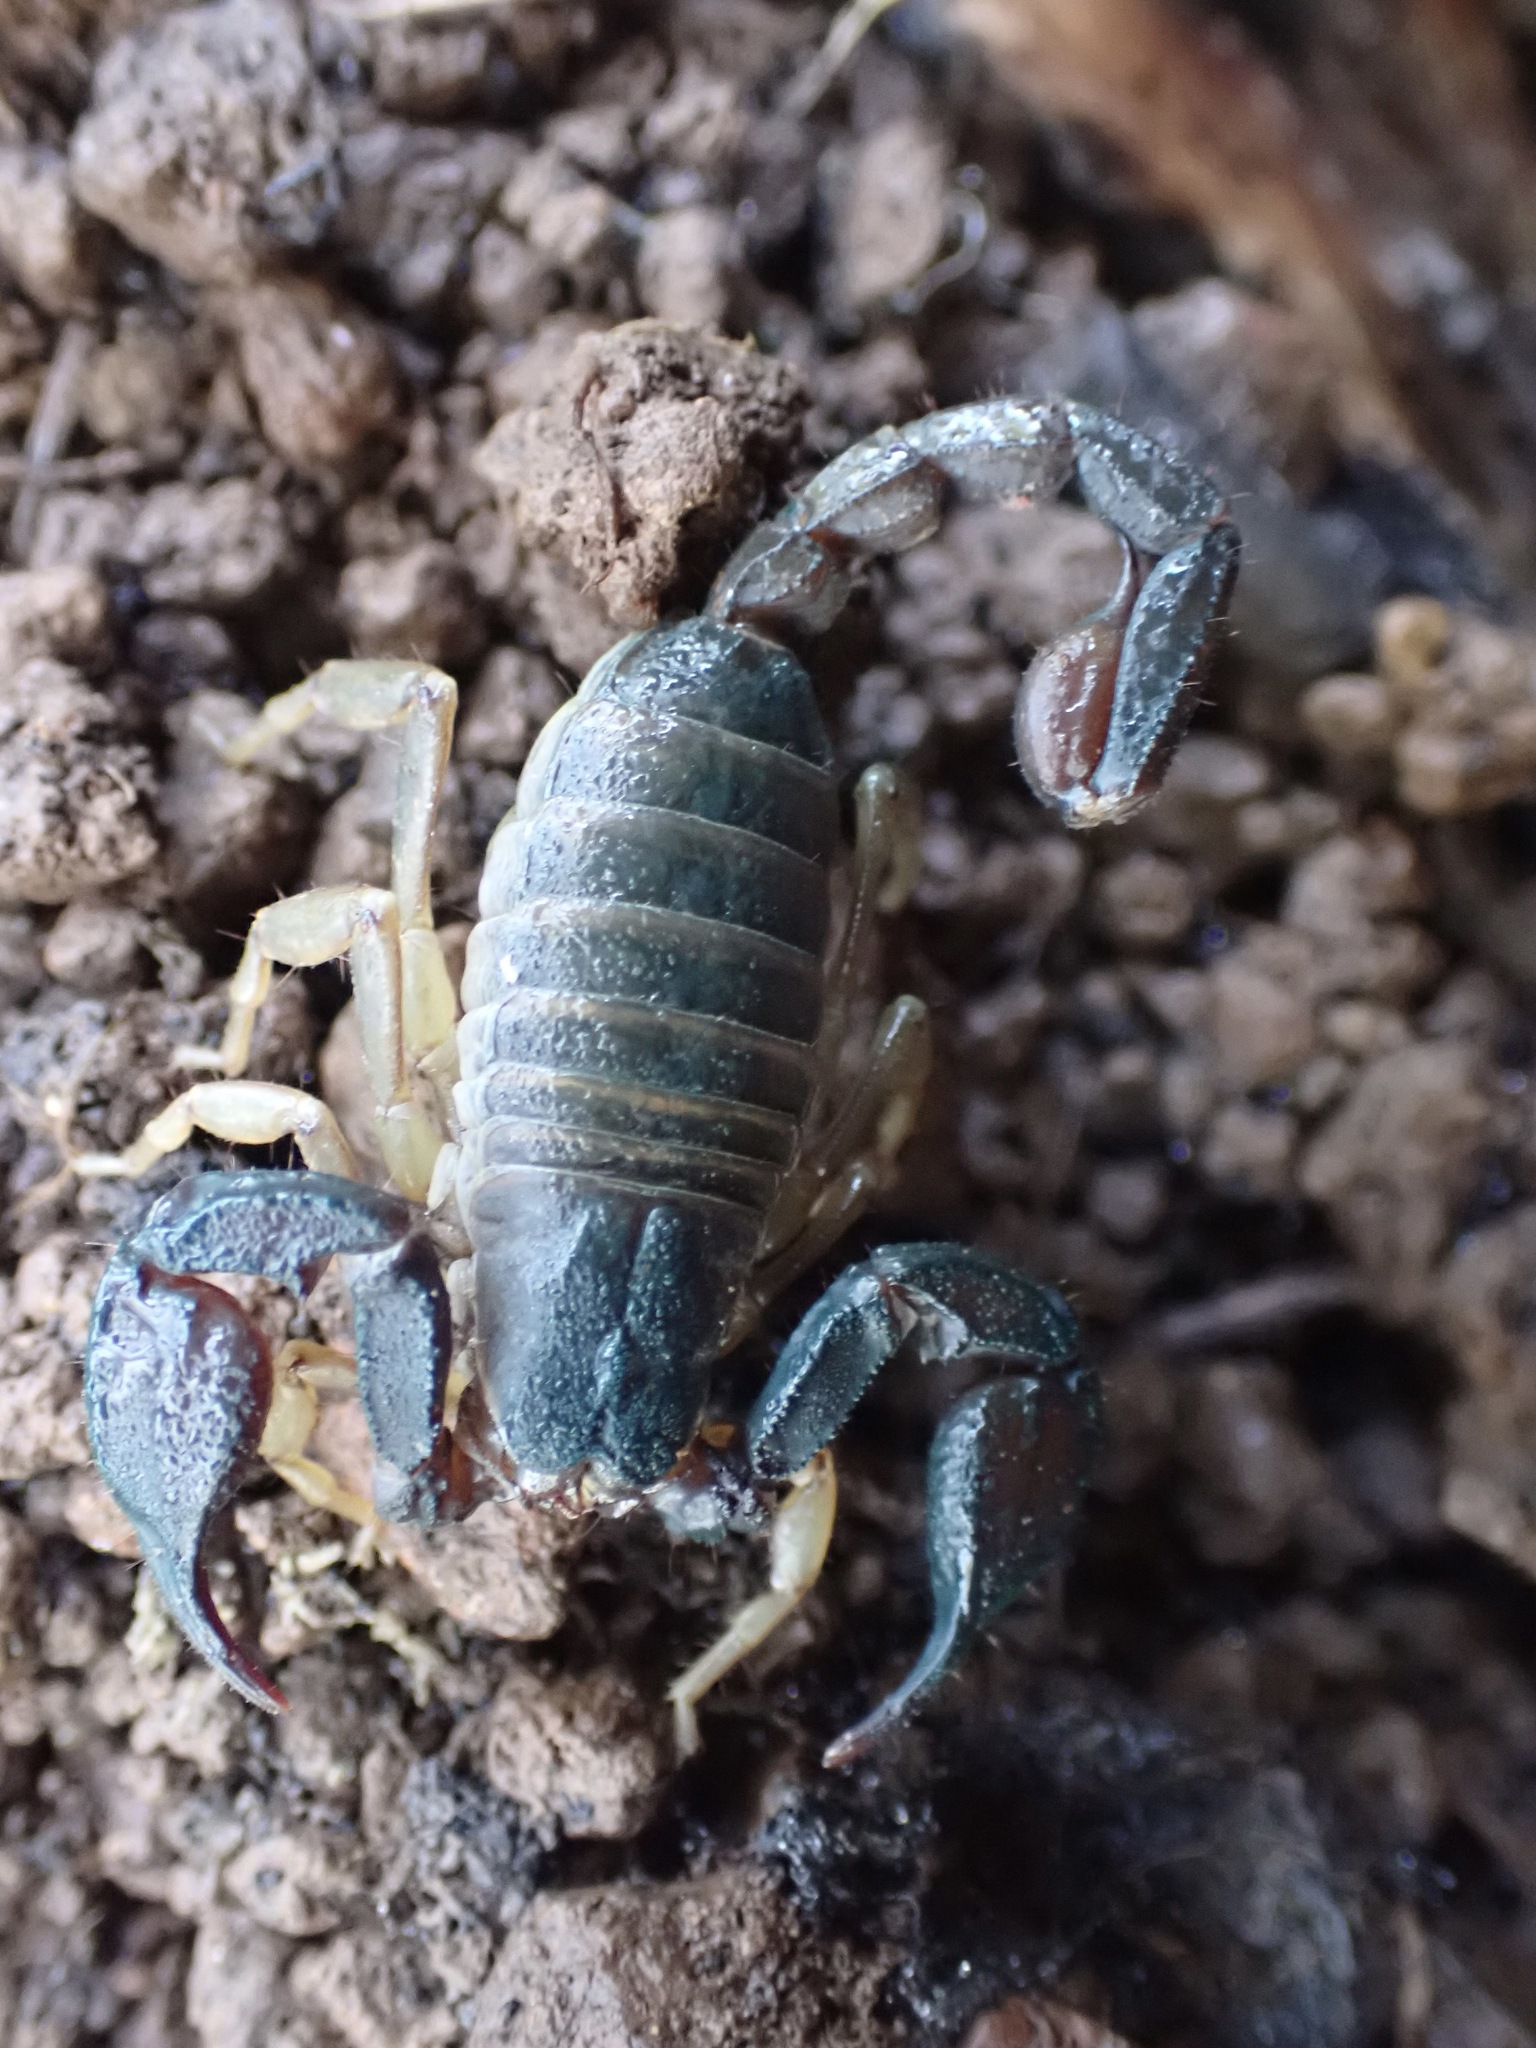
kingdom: Animalia
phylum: Arthropoda
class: Arachnida
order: Scorpiones
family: Chactidae
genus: Uroctonus
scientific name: Uroctonus mordax
